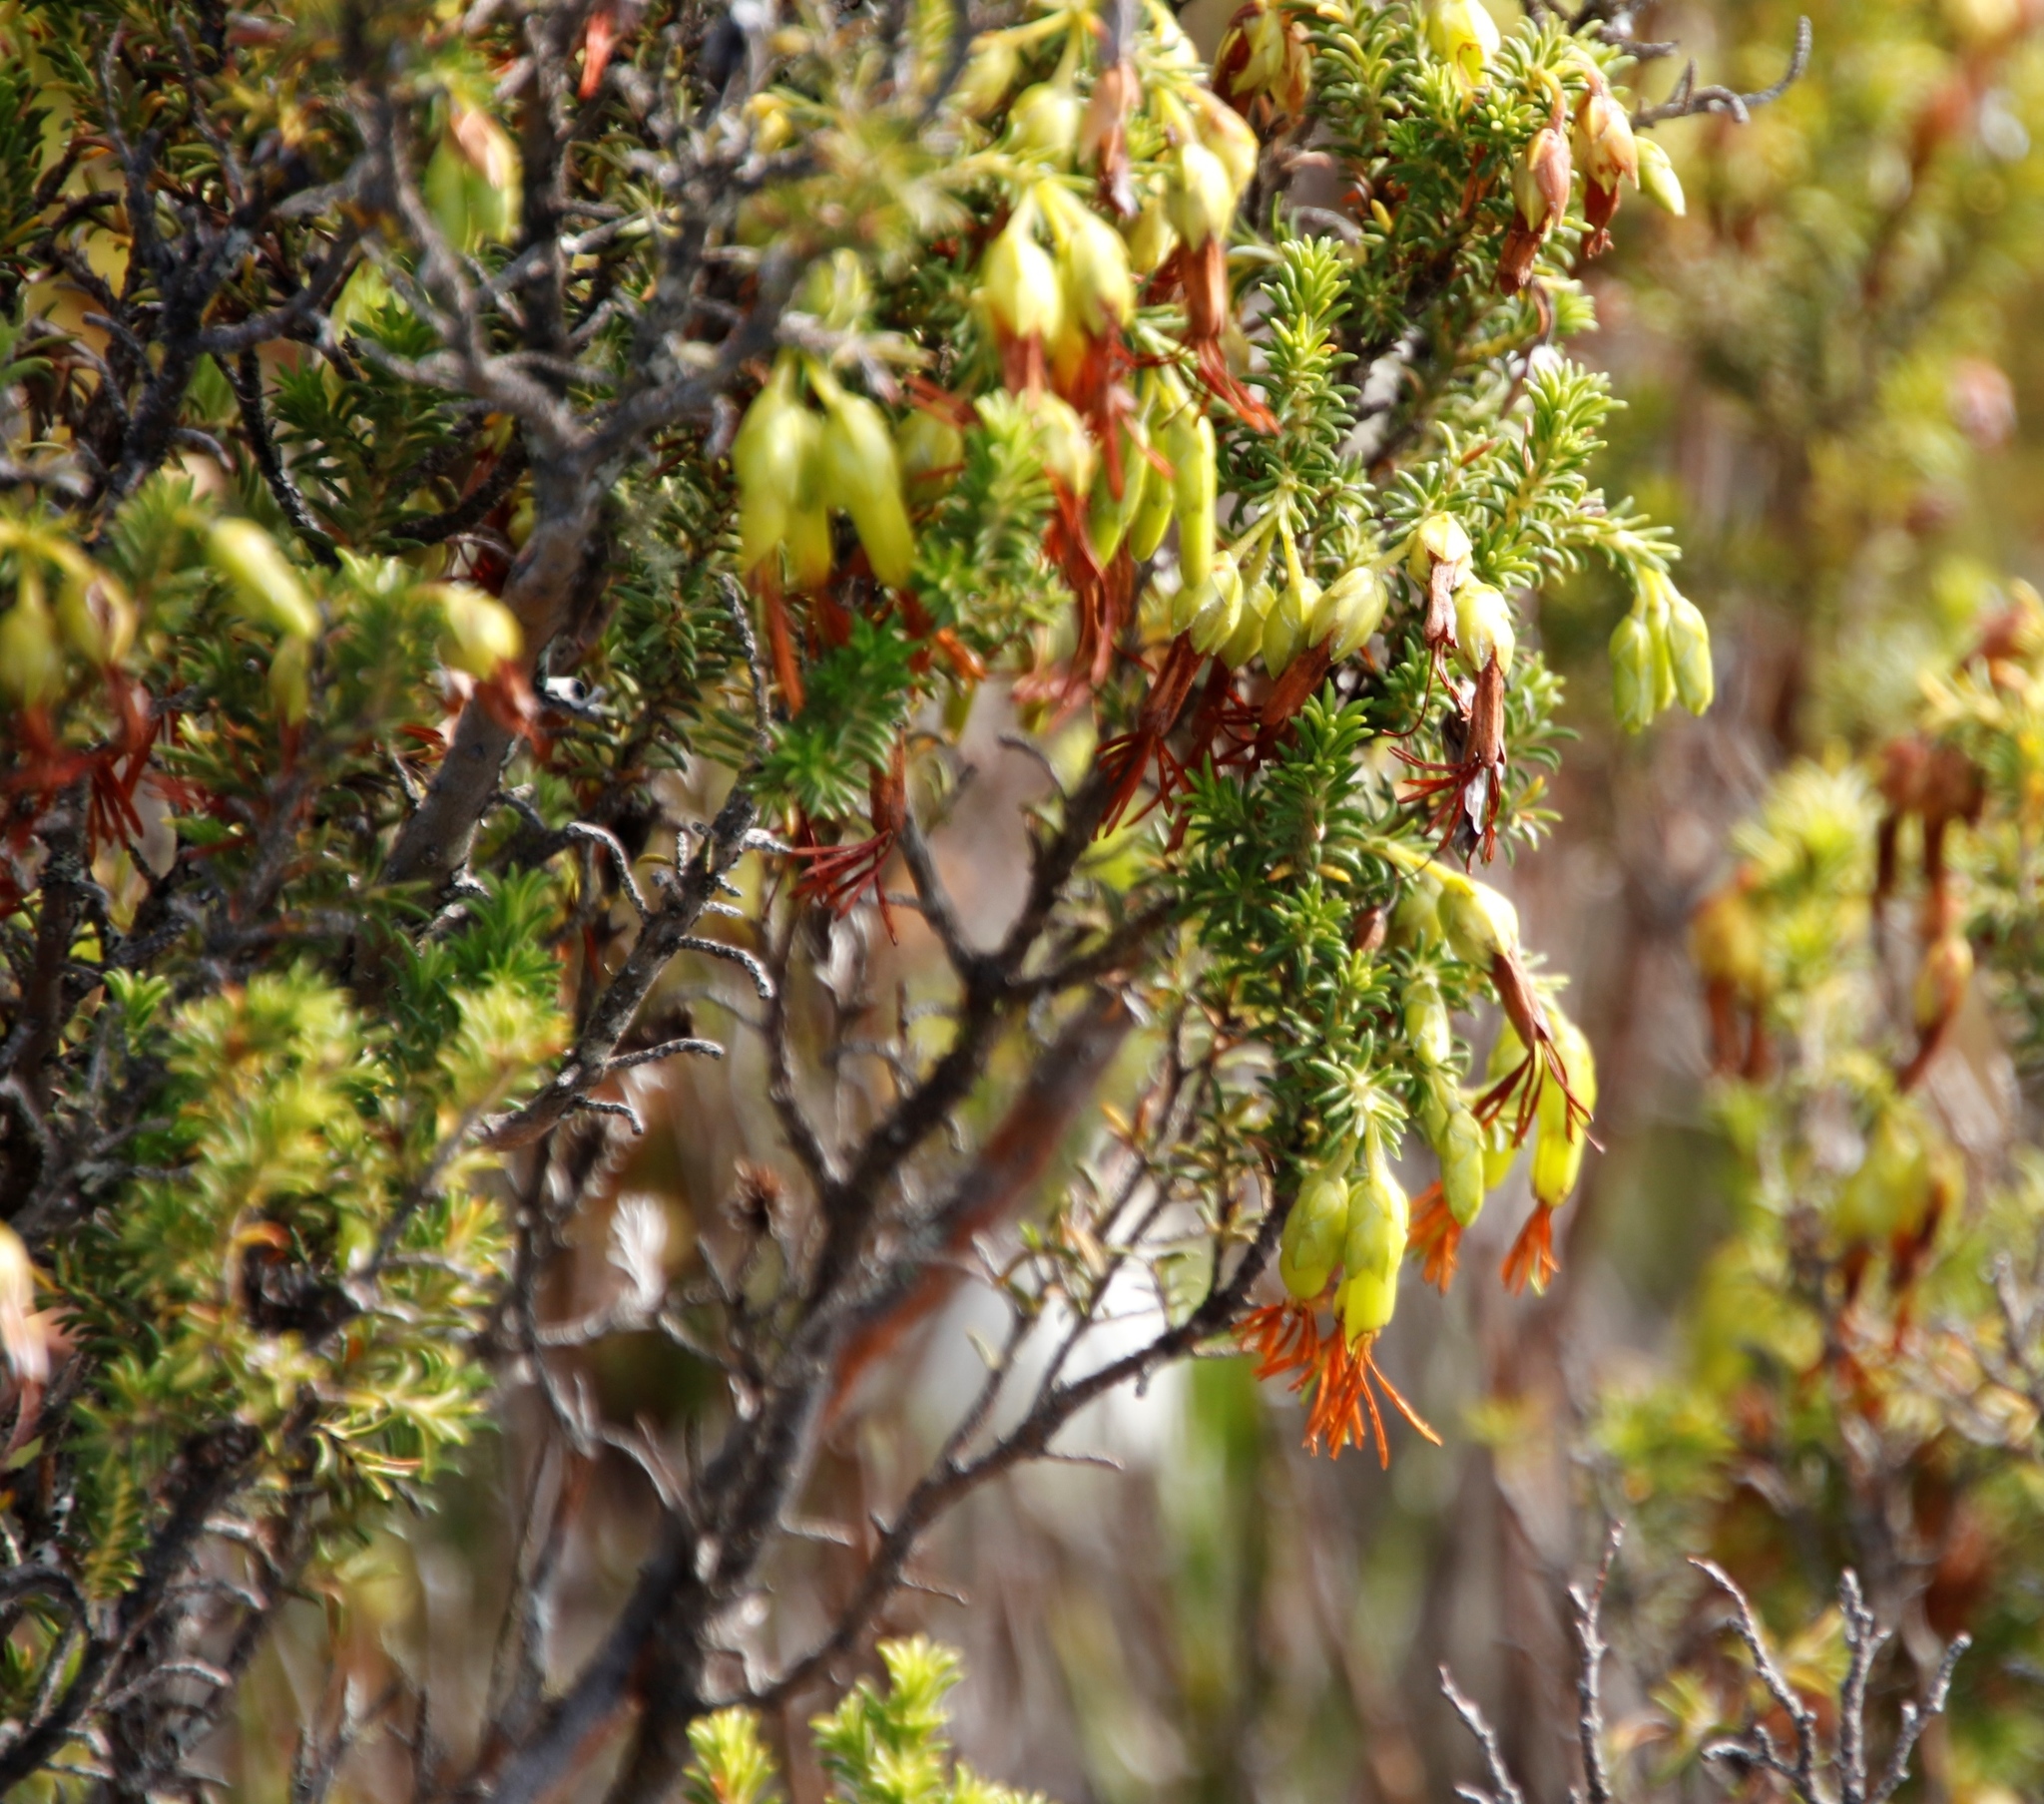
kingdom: Plantae
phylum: Tracheophyta
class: Magnoliopsida
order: Ericales
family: Ericaceae
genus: Erica
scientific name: Erica coccinea
